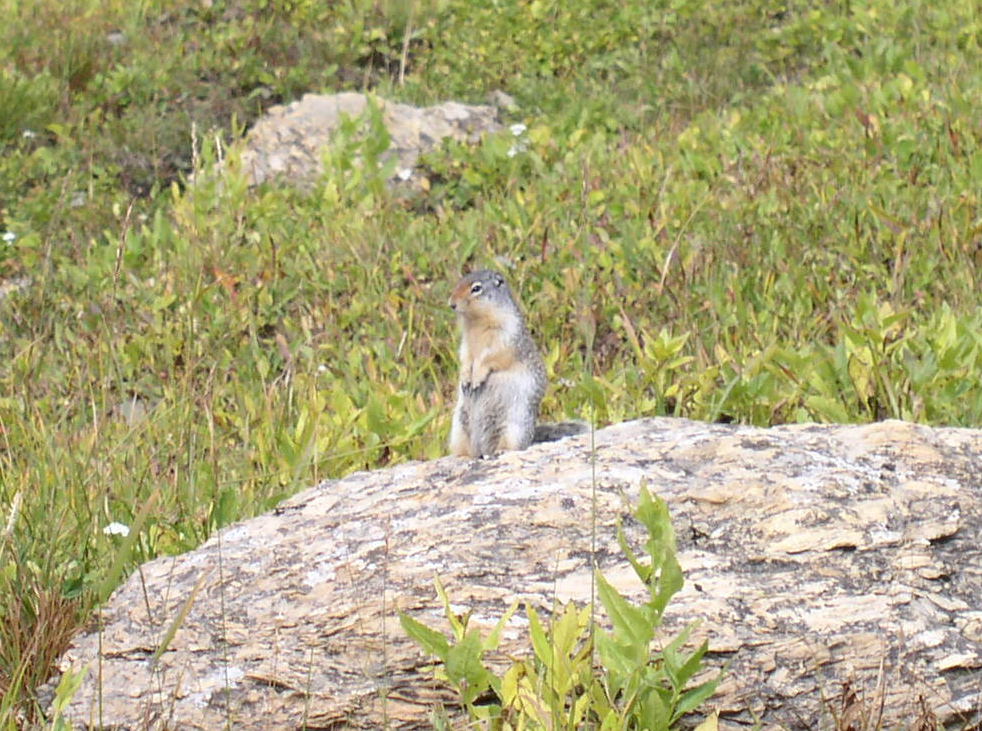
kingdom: Animalia
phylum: Chordata
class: Mammalia
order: Rodentia
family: Sciuridae
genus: Urocitellus
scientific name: Urocitellus columbianus
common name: Columbian ground squirrel
